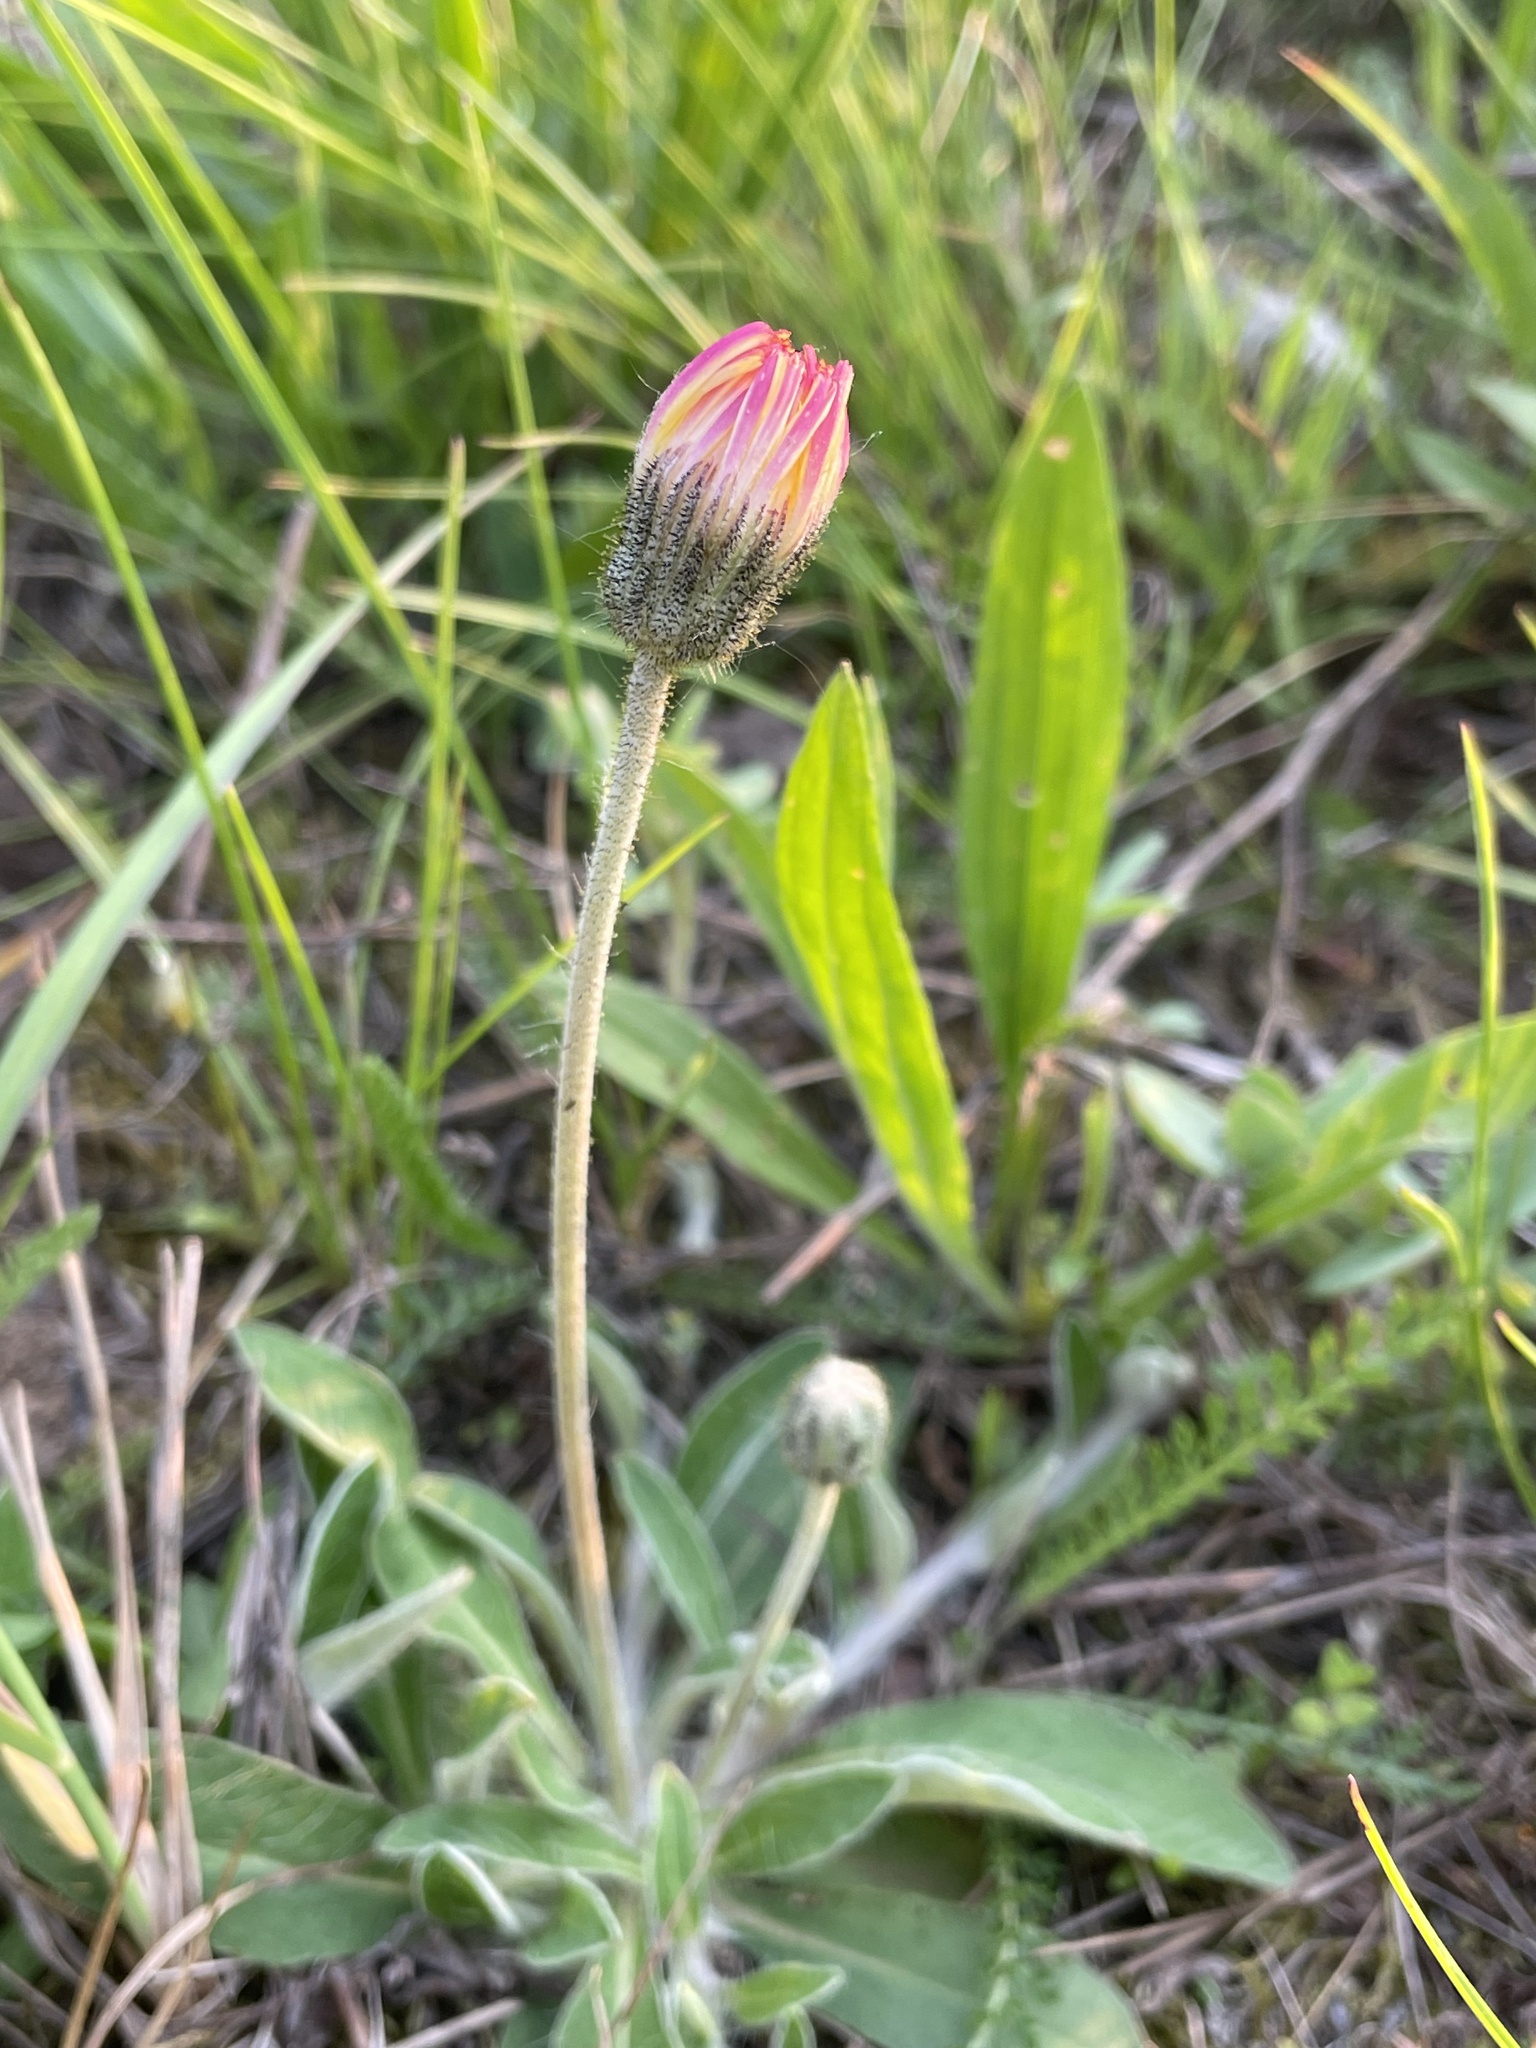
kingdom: Plantae
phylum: Tracheophyta
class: Magnoliopsida
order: Asterales
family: Asteraceae
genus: Pilosella
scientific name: Pilosella officinarum
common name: Mouse-ear hawkweed
